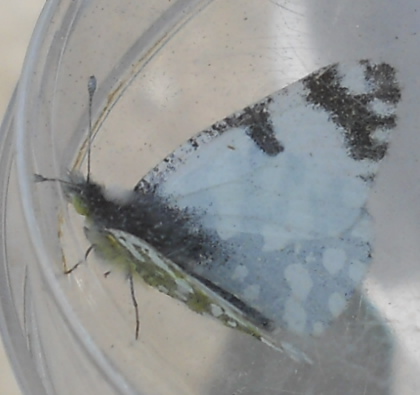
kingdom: Animalia
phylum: Arthropoda
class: Insecta
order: Lepidoptera
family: Pieridae
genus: Euchloe
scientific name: Euchloe ausonia
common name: Eastern dappled white
